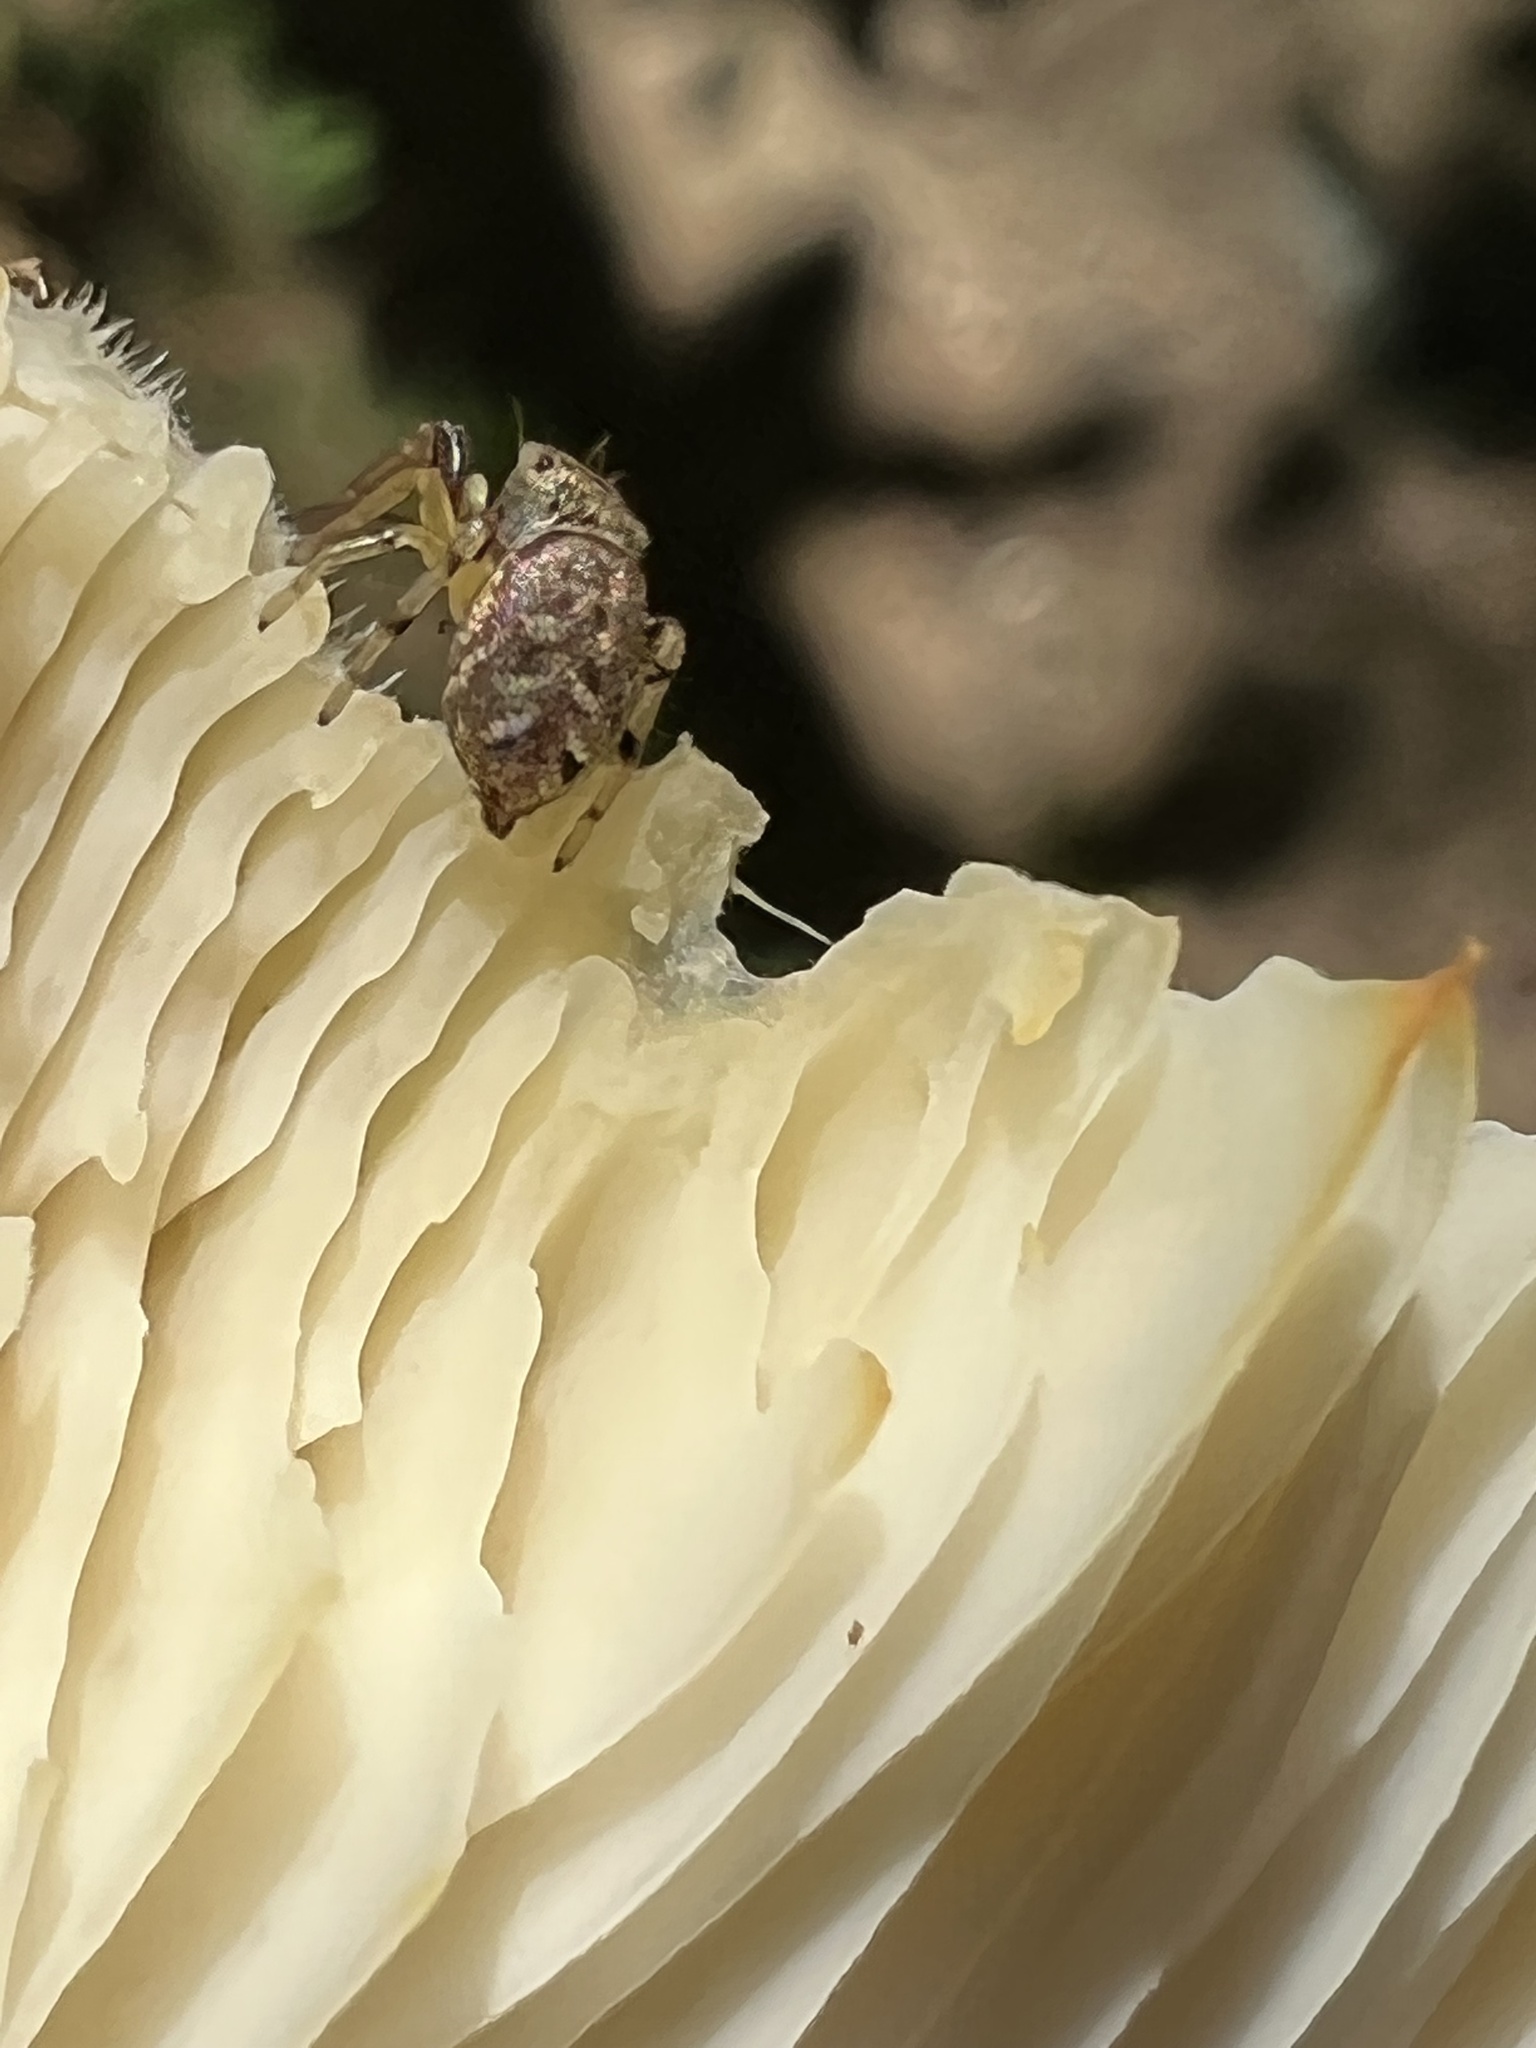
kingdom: Animalia
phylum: Arthropoda
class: Arachnida
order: Araneae
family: Salticidae
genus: Zygoballus
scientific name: Zygoballus rufipes
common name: Jumping spiders
